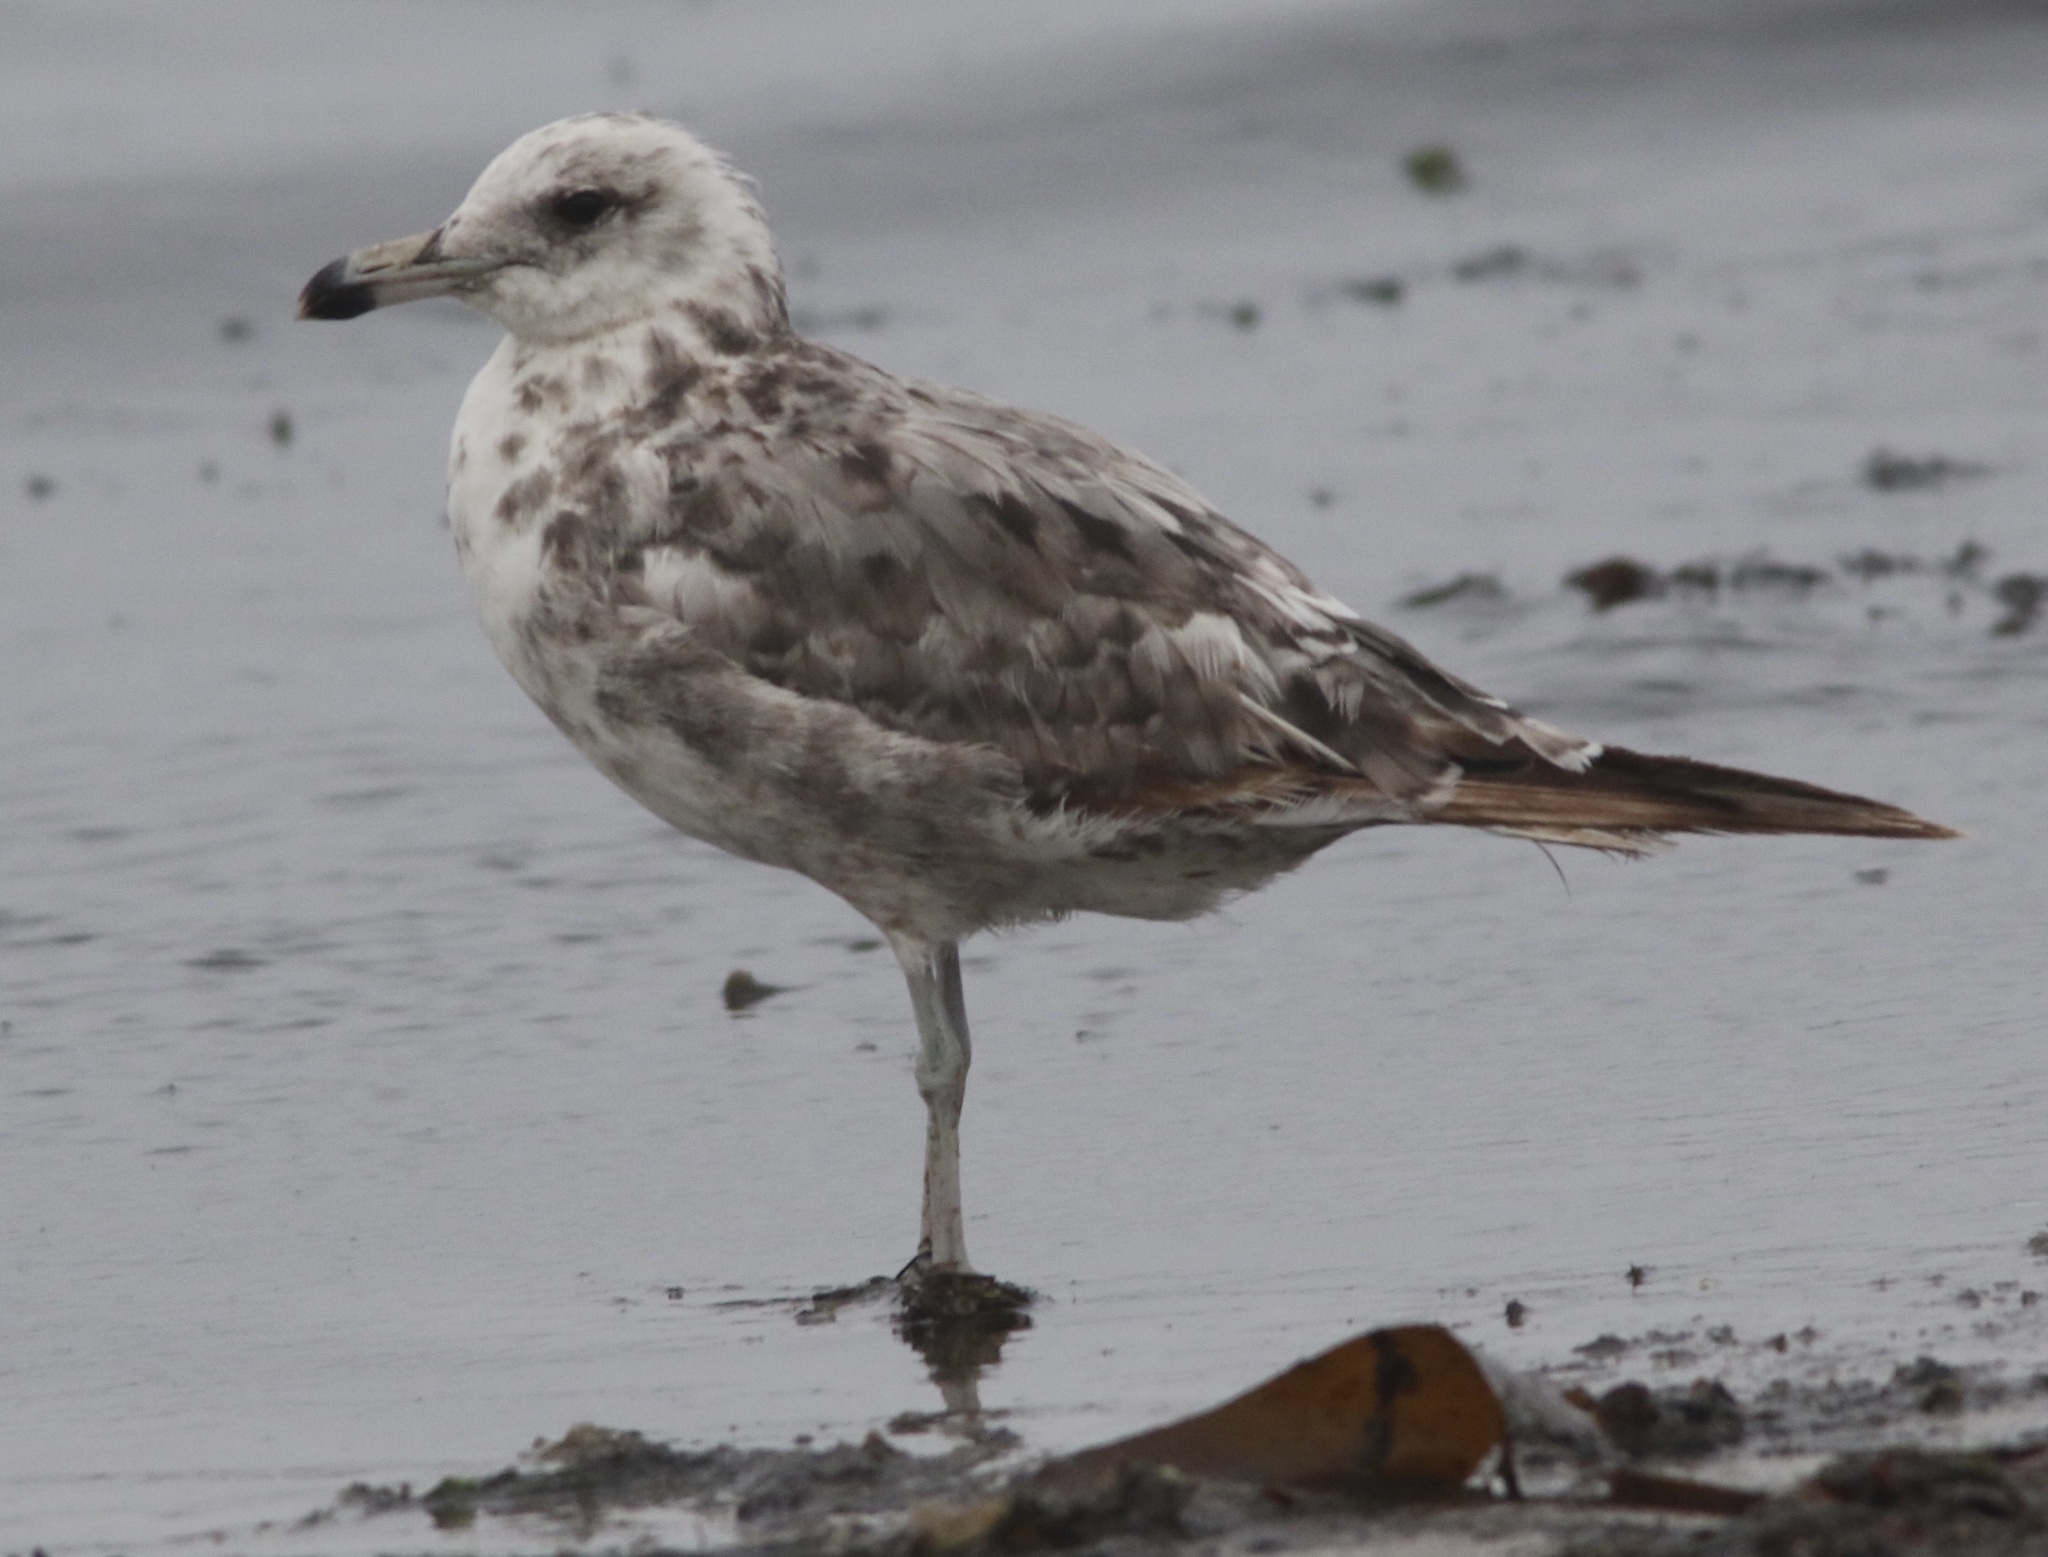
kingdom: Animalia
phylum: Chordata
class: Aves
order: Charadriiformes
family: Laridae
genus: Larus
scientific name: Larus californicus
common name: California gull
